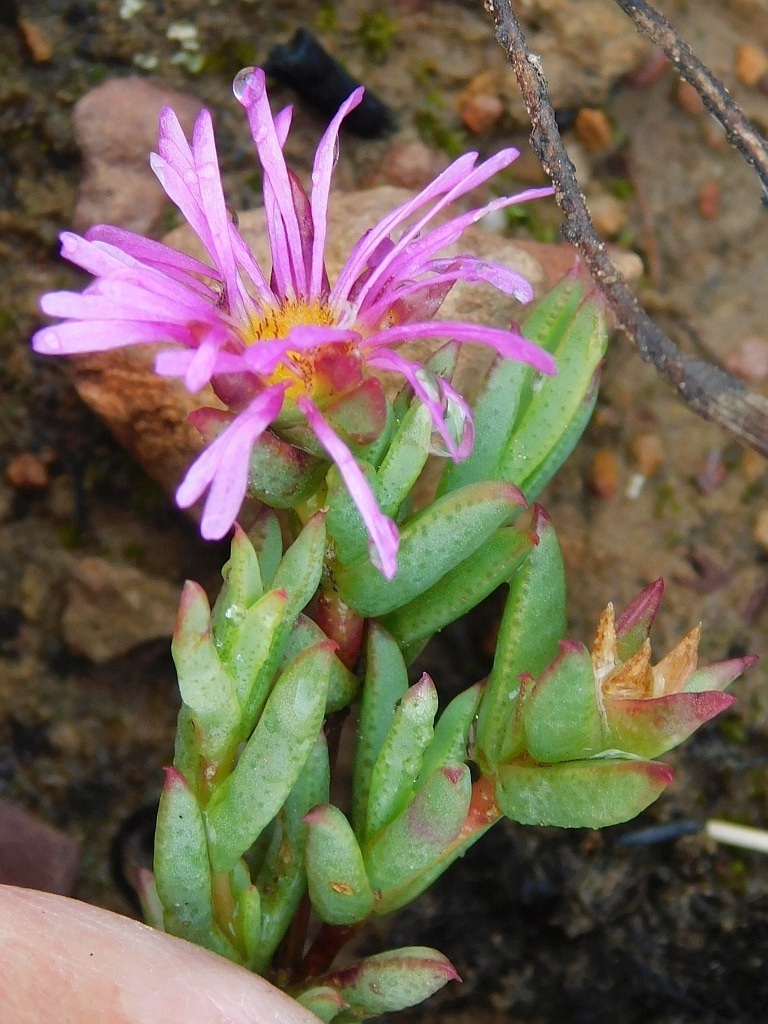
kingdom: Plantae
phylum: Tracheophyta
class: Magnoliopsida
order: Caryophyllales
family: Aizoaceae
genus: Erepsia
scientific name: Erepsia anceps
